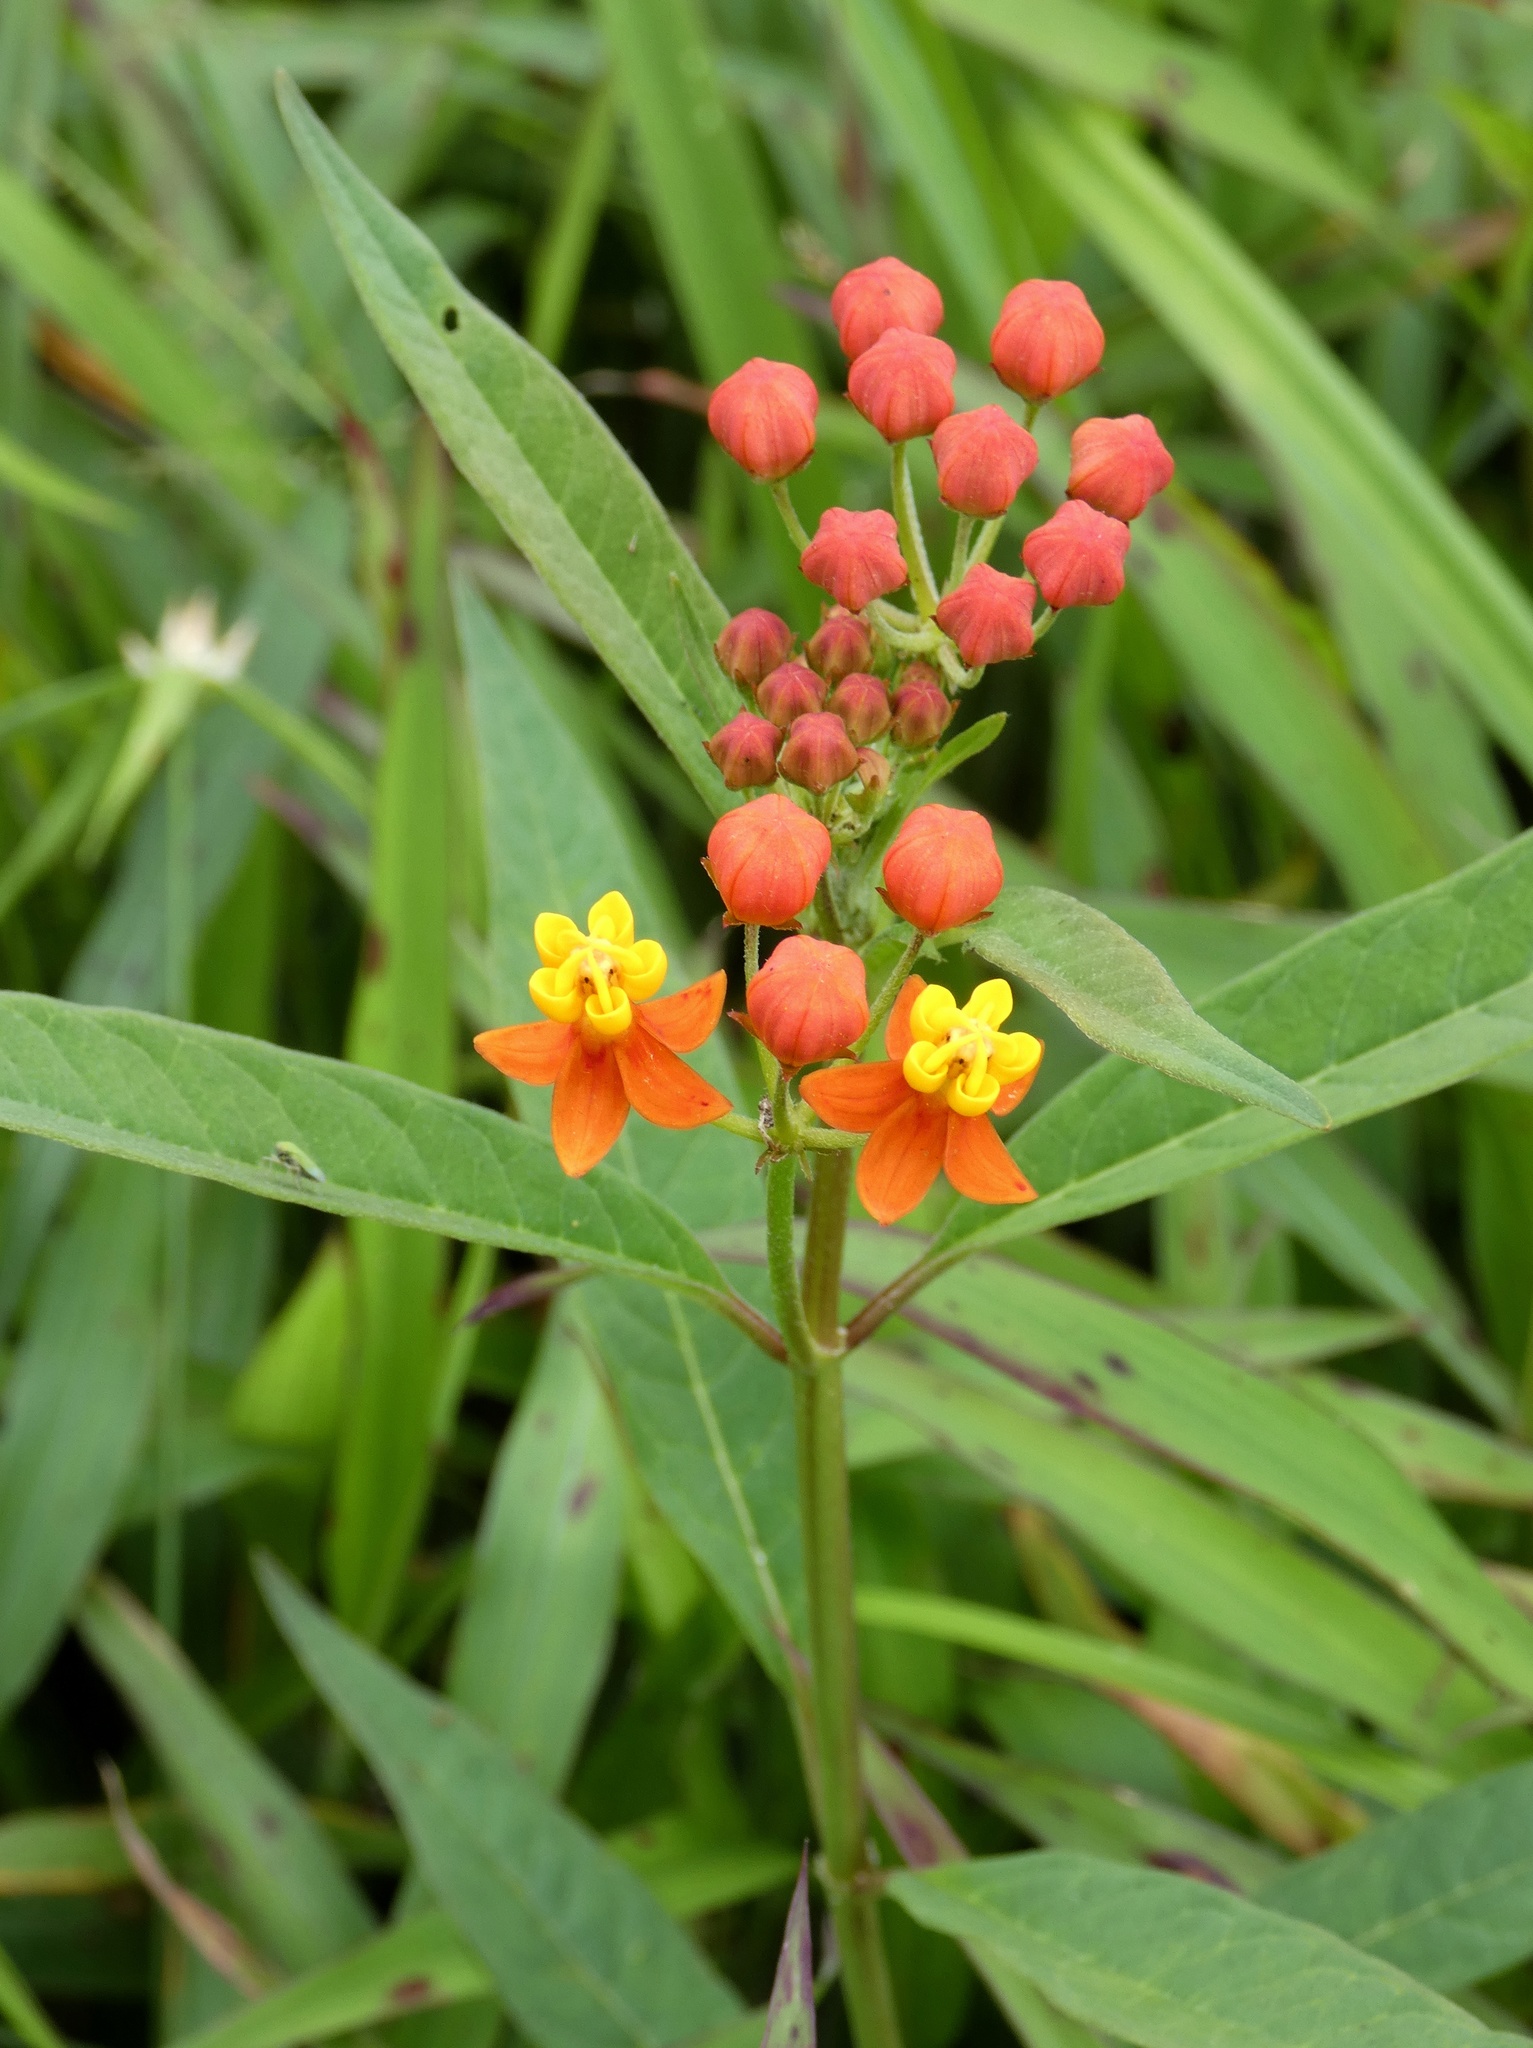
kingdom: Plantae
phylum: Tracheophyta
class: Magnoliopsida
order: Gentianales
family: Apocynaceae
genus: Asclepias
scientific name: Asclepias curassavica
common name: Bloodflower
